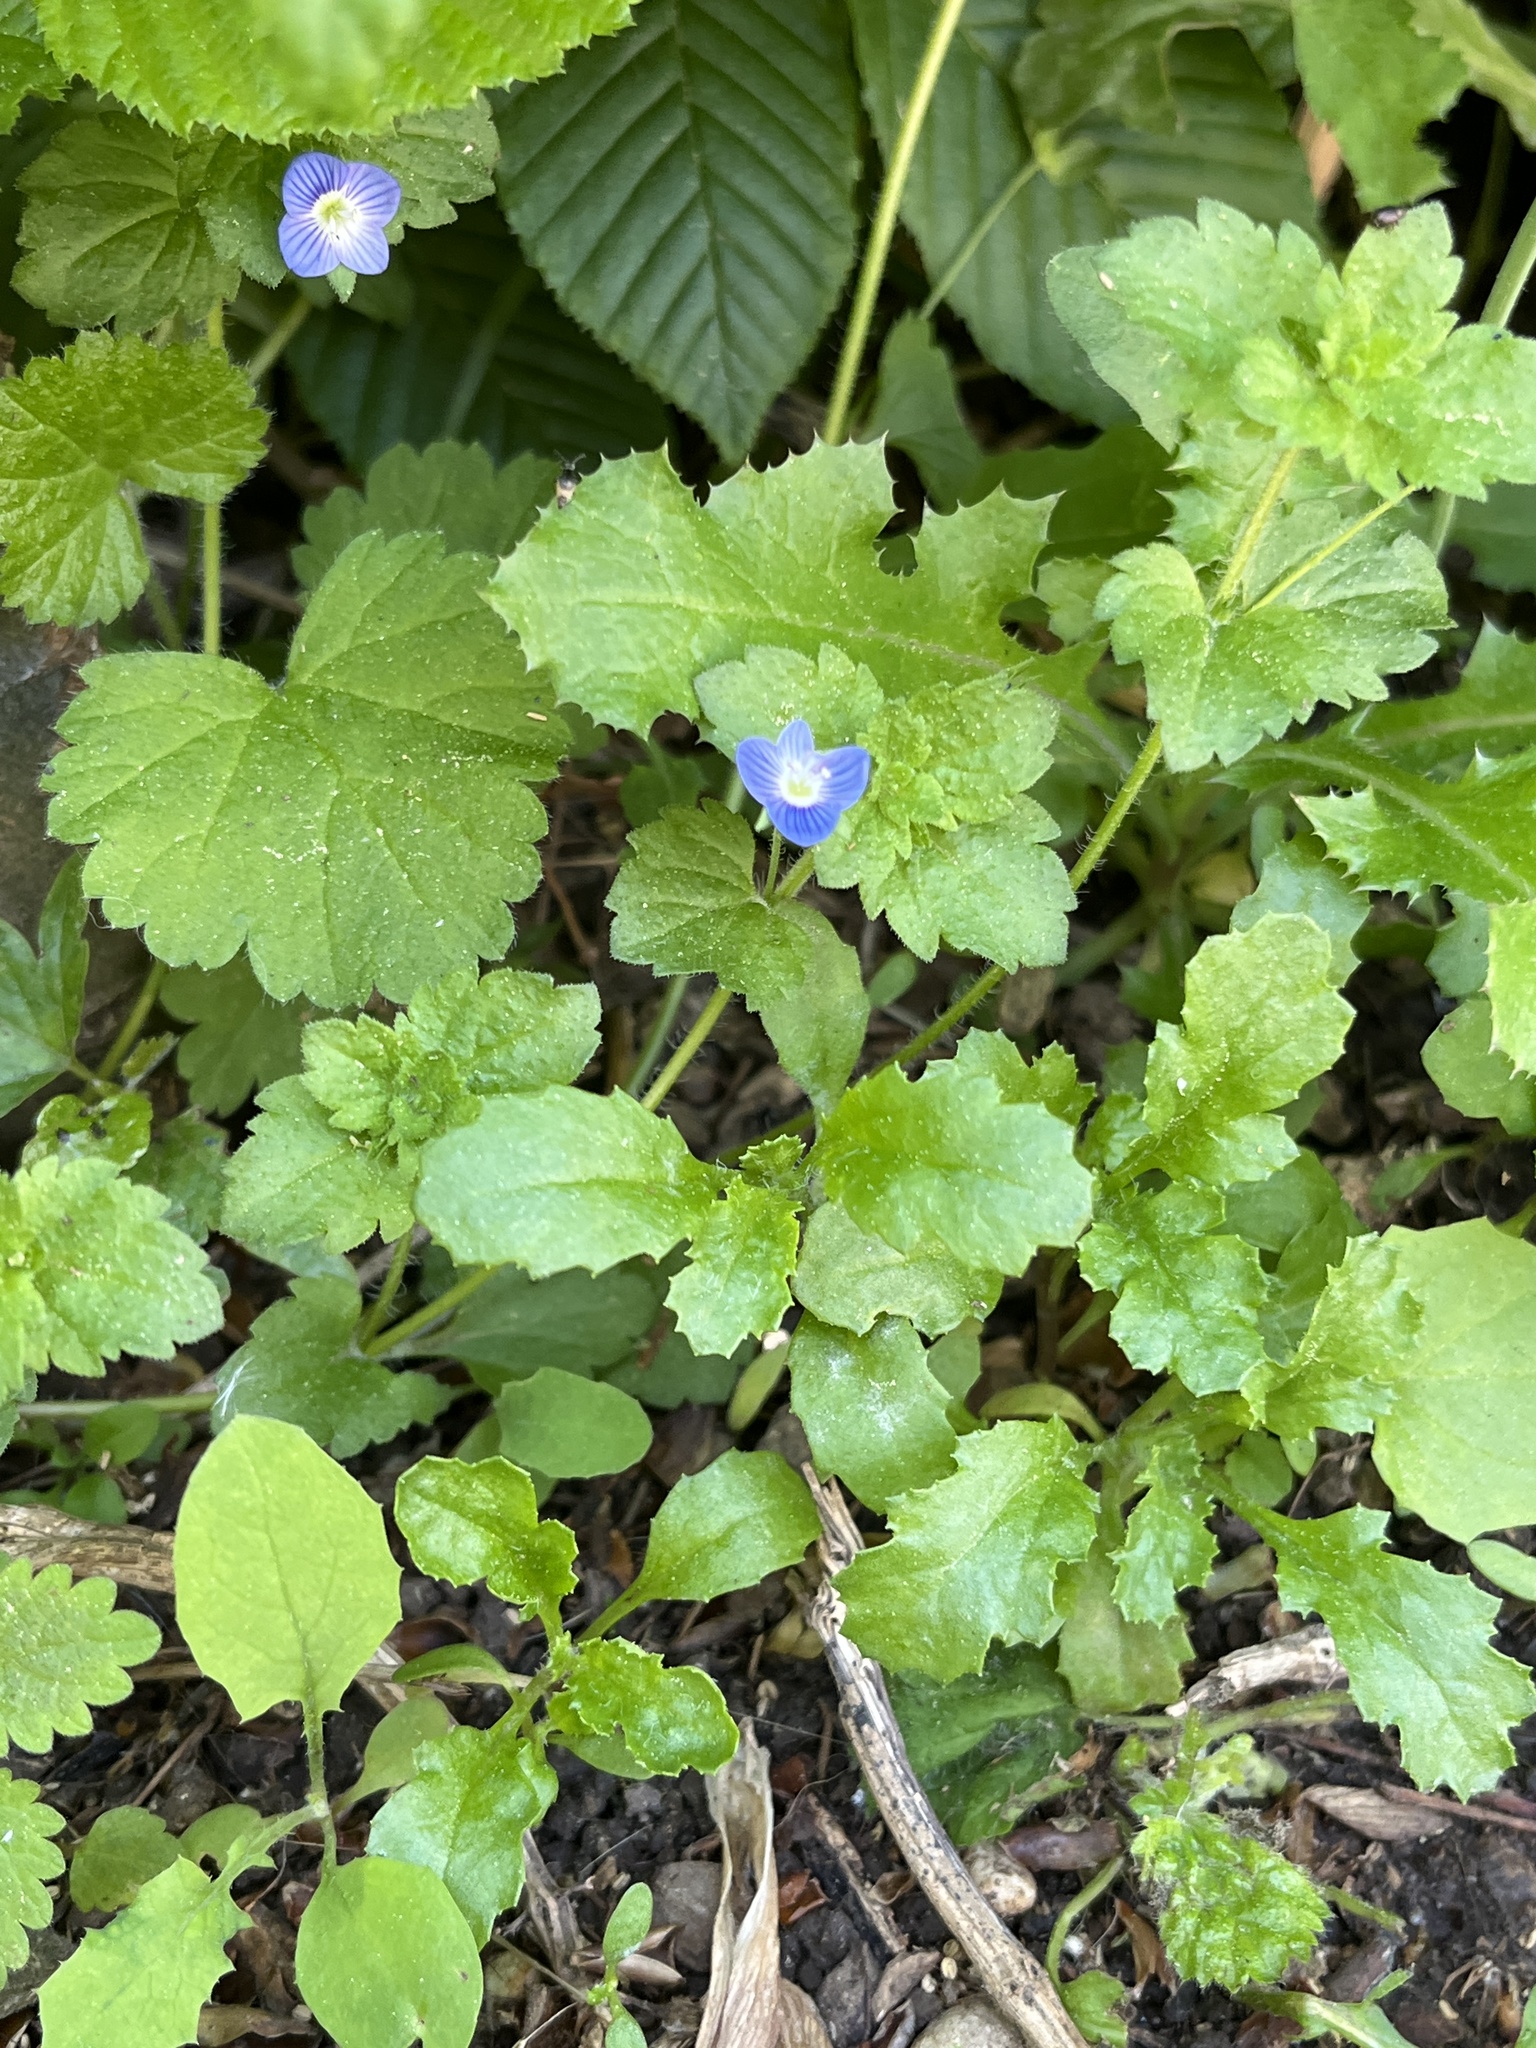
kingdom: Plantae
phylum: Tracheophyta
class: Magnoliopsida
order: Lamiales
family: Plantaginaceae
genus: Veronica
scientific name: Veronica persica
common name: Common field-speedwell
